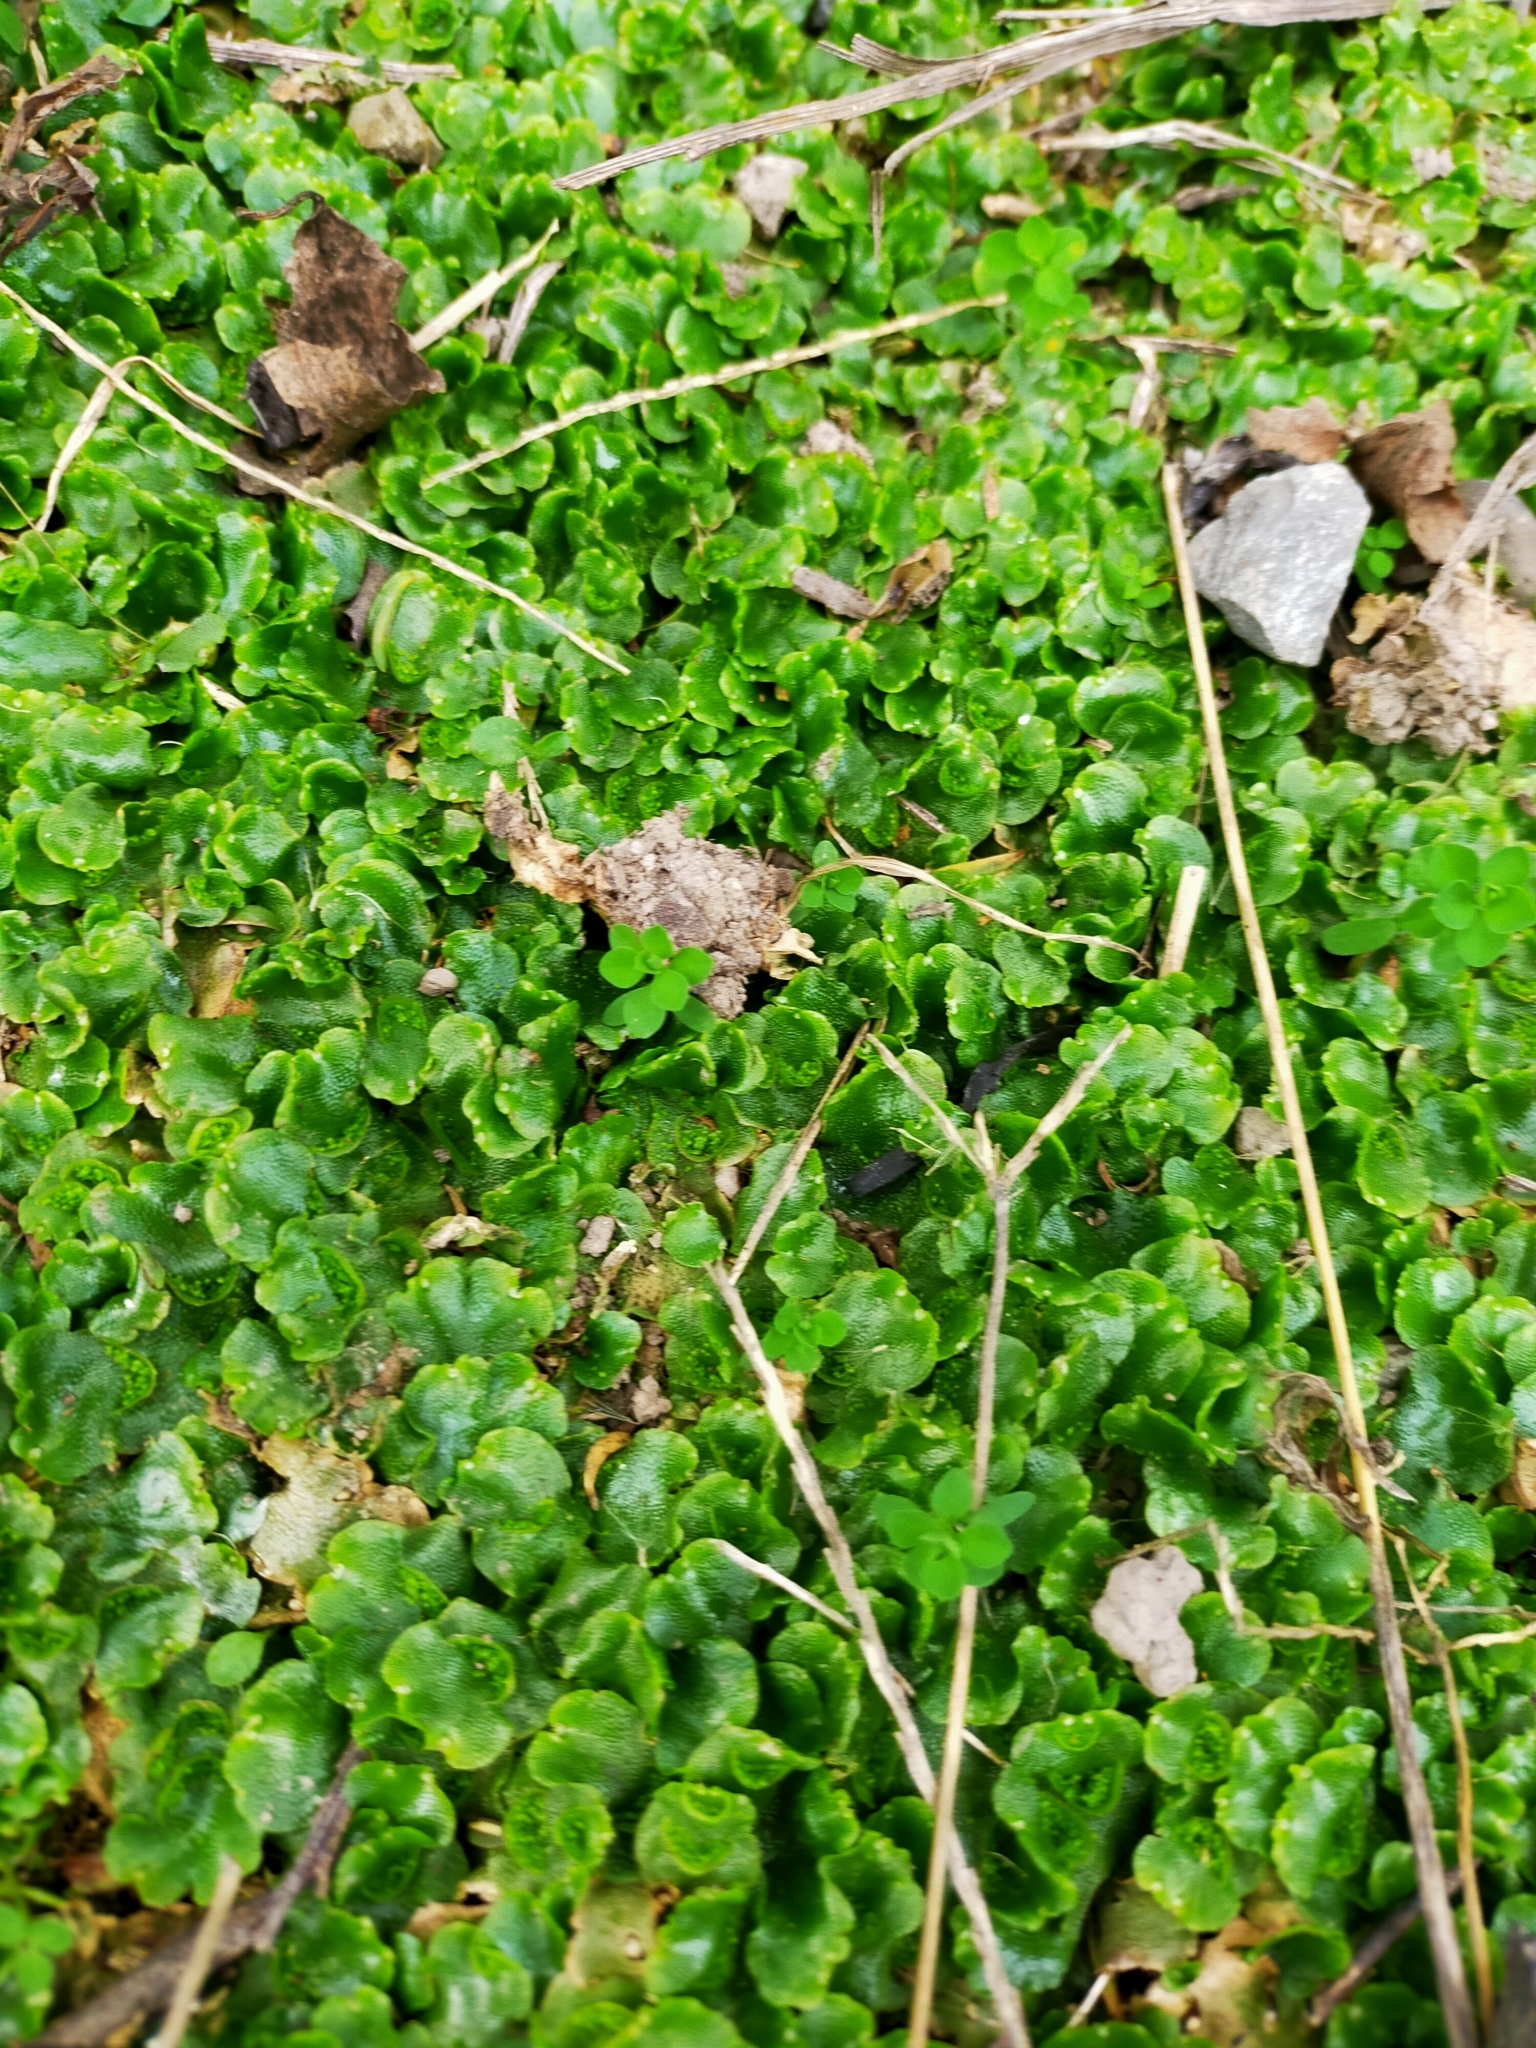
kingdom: Plantae
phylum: Marchantiophyta
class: Marchantiopsida
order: Lunulariales
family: Lunulariaceae
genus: Lunularia
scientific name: Lunularia cruciata
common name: Crescent-cup liverwort
